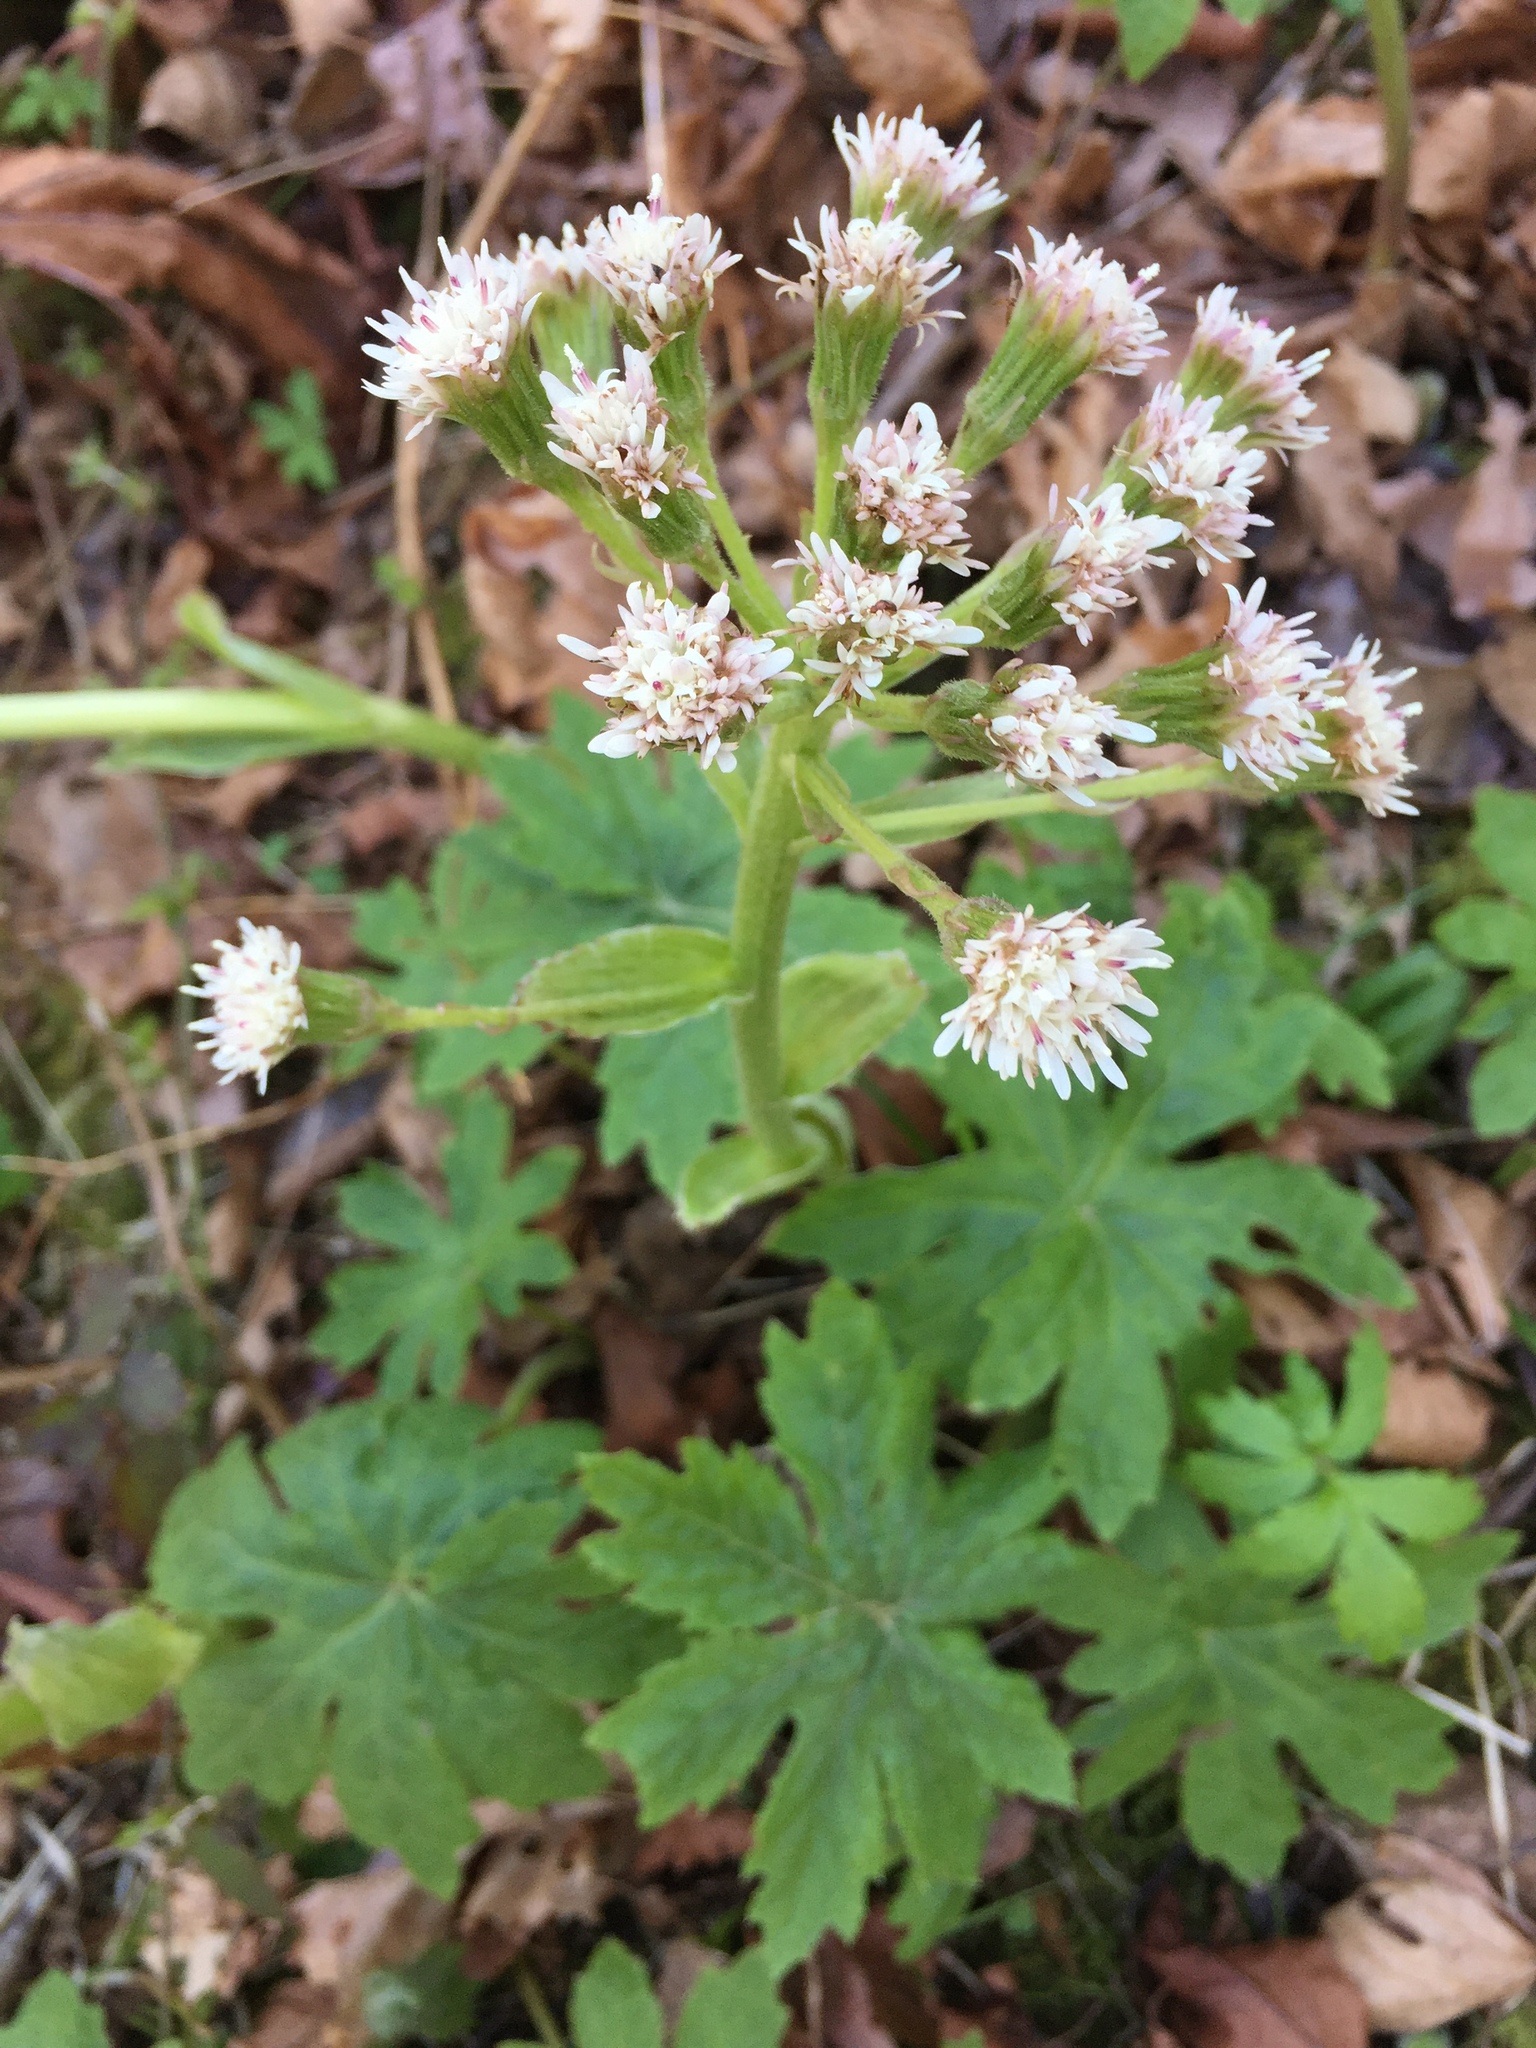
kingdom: Plantae
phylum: Tracheophyta
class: Magnoliopsida
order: Asterales
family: Asteraceae
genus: Petasites
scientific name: Petasites frigidus
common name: Arctic butterbur
